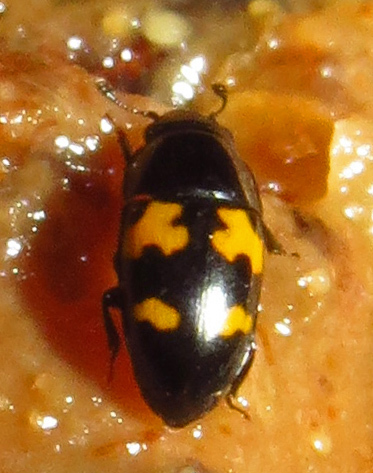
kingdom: Animalia
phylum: Arthropoda
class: Insecta
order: Coleoptera
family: Nitidulidae
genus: Glischrochilus
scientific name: Glischrochilus fasciatus
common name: Picnic beetle
